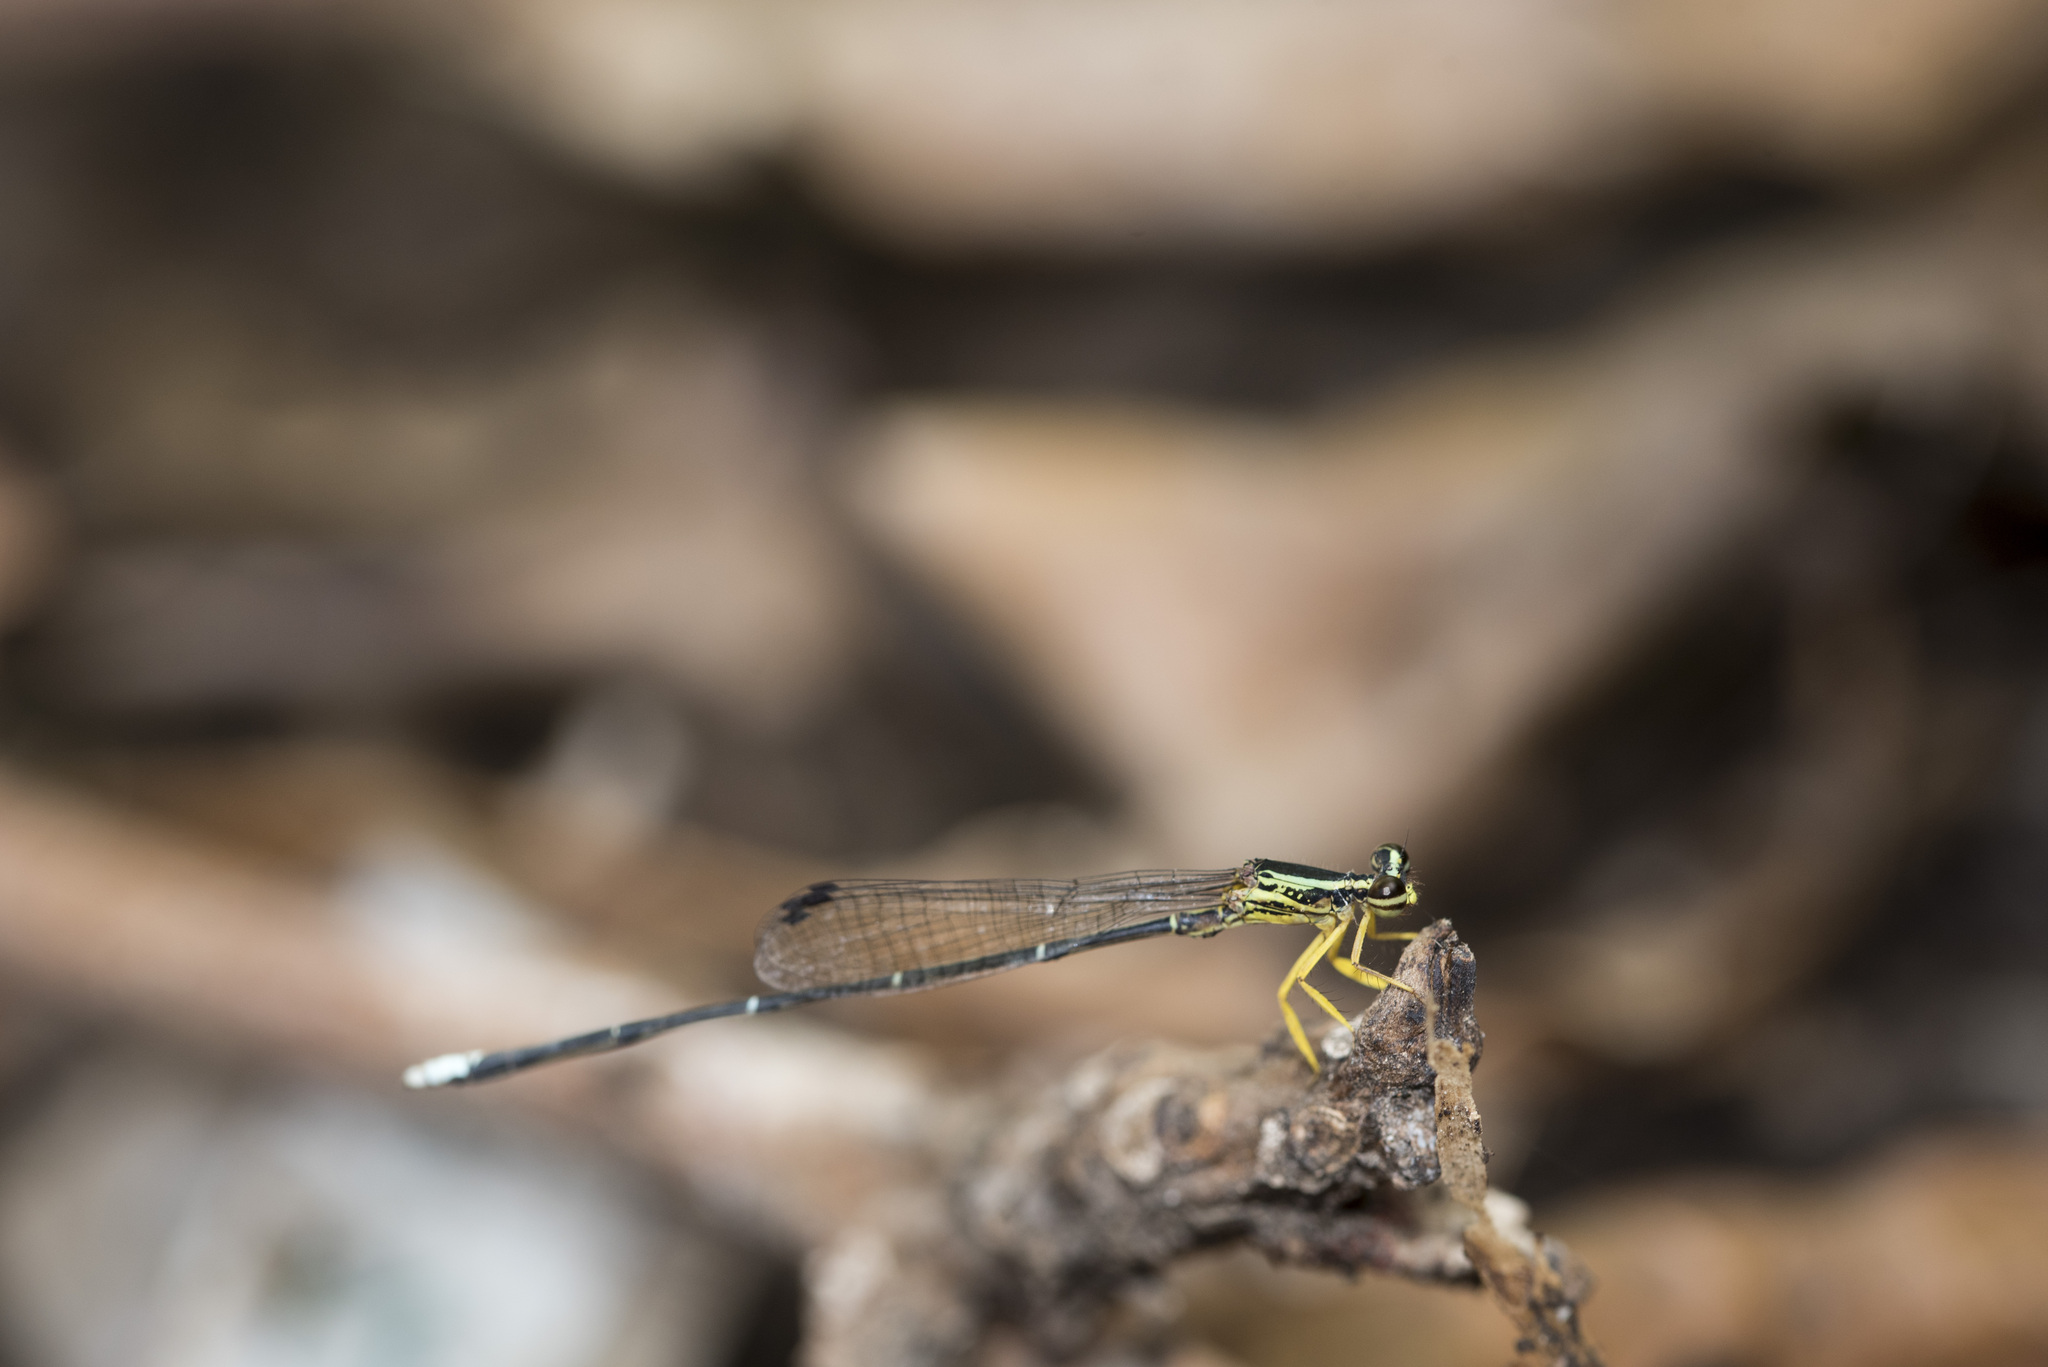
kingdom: Animalia
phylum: Arthropoda
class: Insecta
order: Odonata
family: Platycnemididae
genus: Copera
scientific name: Copera marginipes
